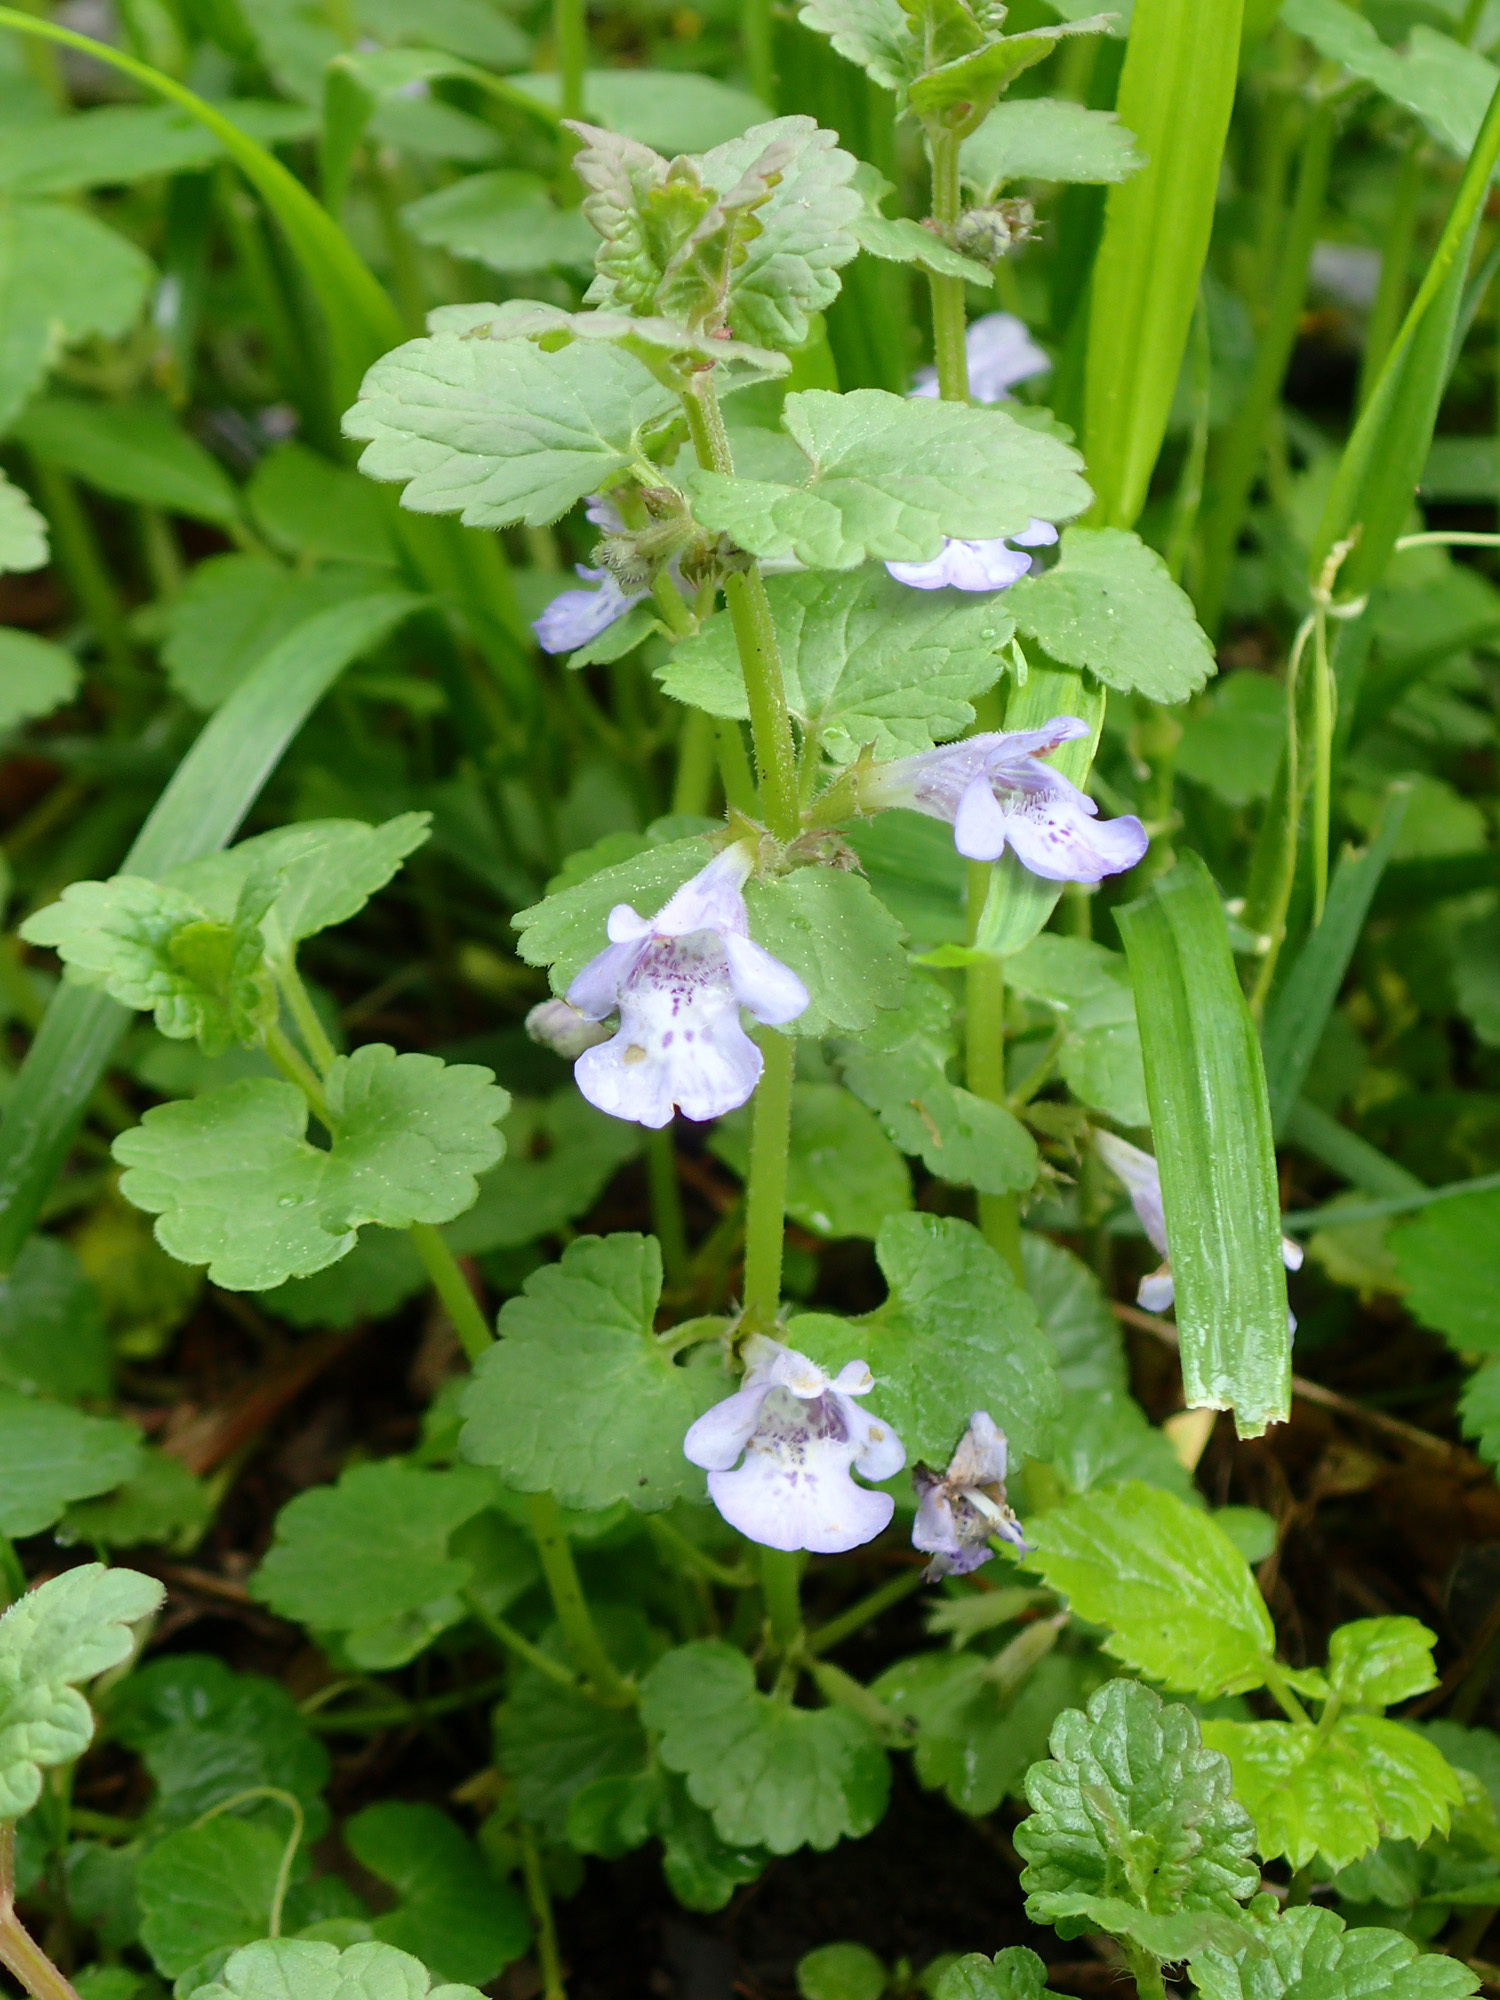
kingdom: Plantae
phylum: Tracheophyta
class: Magnoliopsida
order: Lamiales
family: Lamiaceae
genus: Glechoma
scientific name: Glechoma hederacea
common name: Ground ivy
